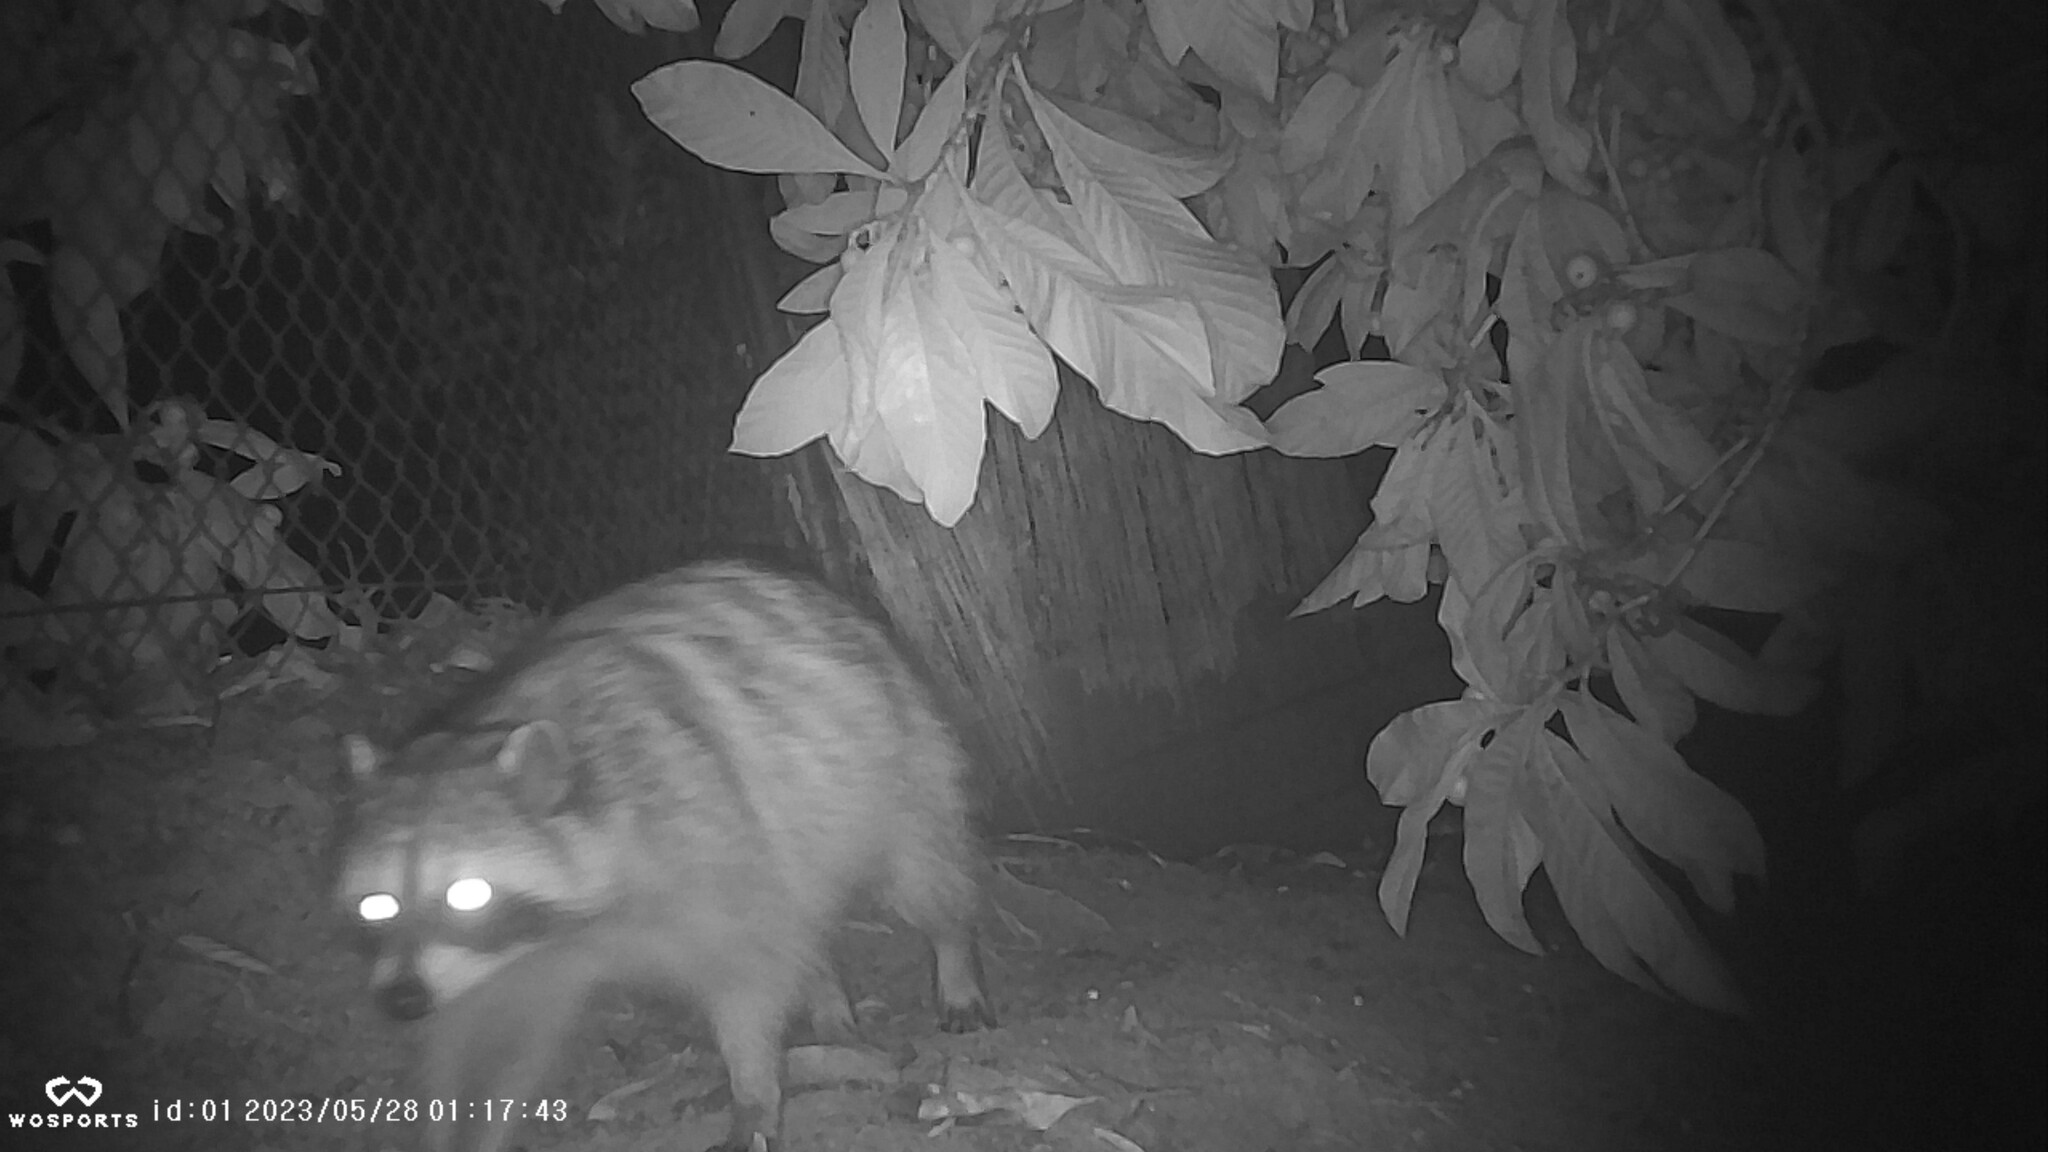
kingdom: Animalia
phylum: Chordata
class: Mammalia
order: Carnivora
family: Procyonidae
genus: Procyon
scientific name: Procyon lotor
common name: Raccoon
